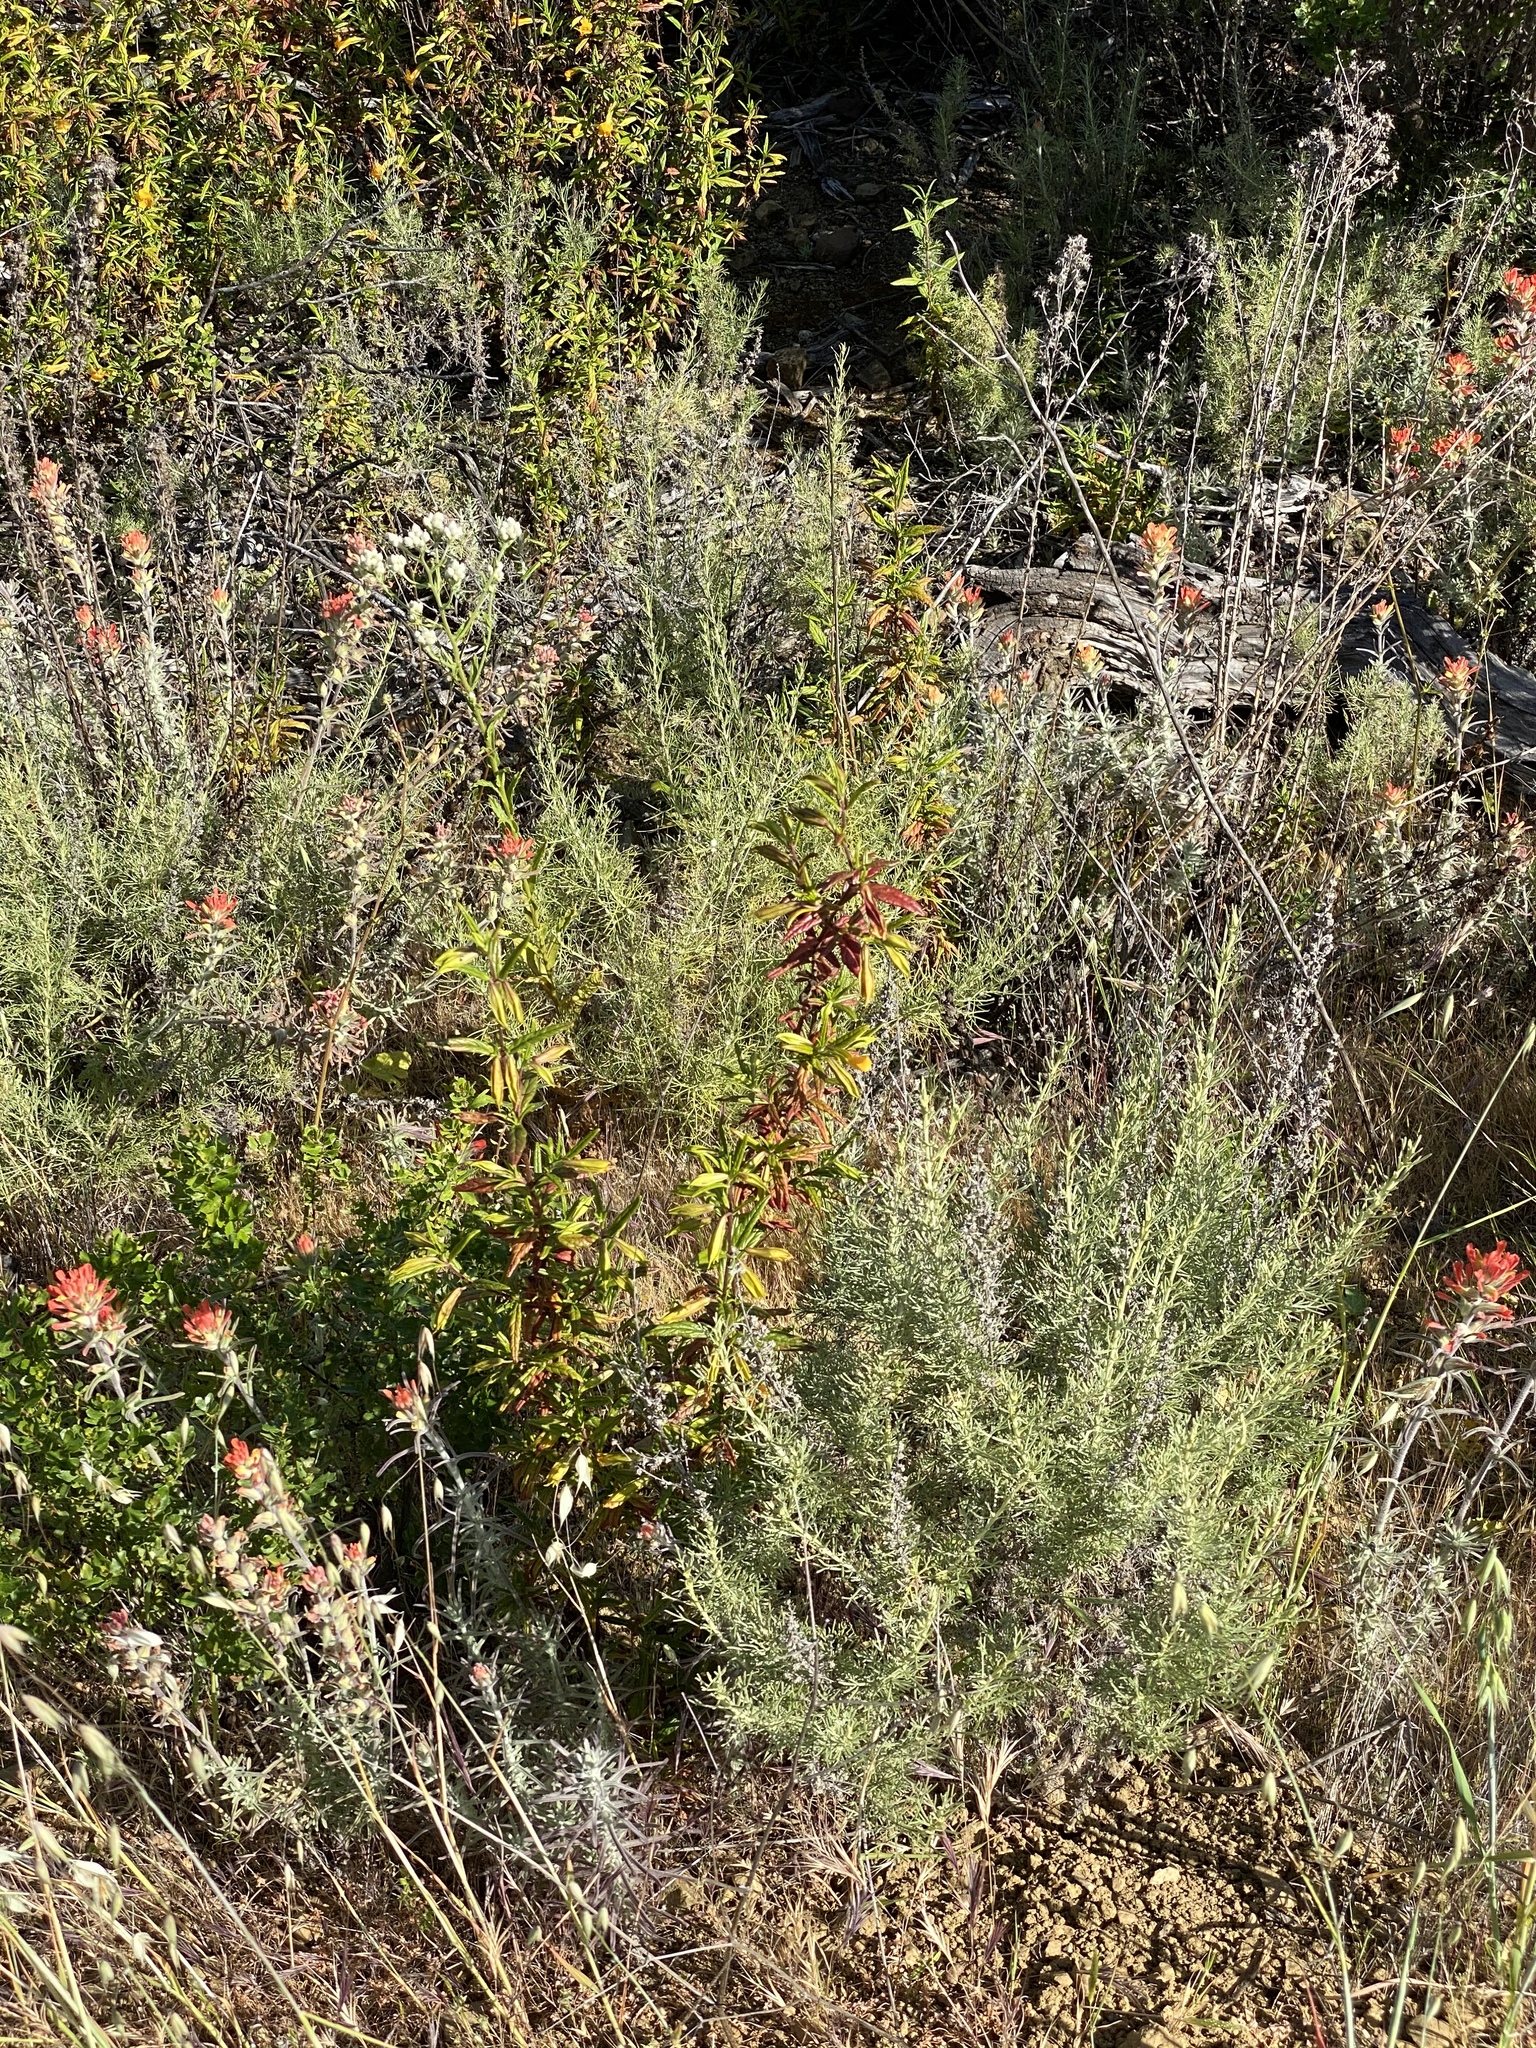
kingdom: Plantae
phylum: Tracheophyta
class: Magnoliopsida
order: Lamiales
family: Orobanchaceae
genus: Castilleja
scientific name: Castilleja foliolosa
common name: Woolly indian paintbrush
